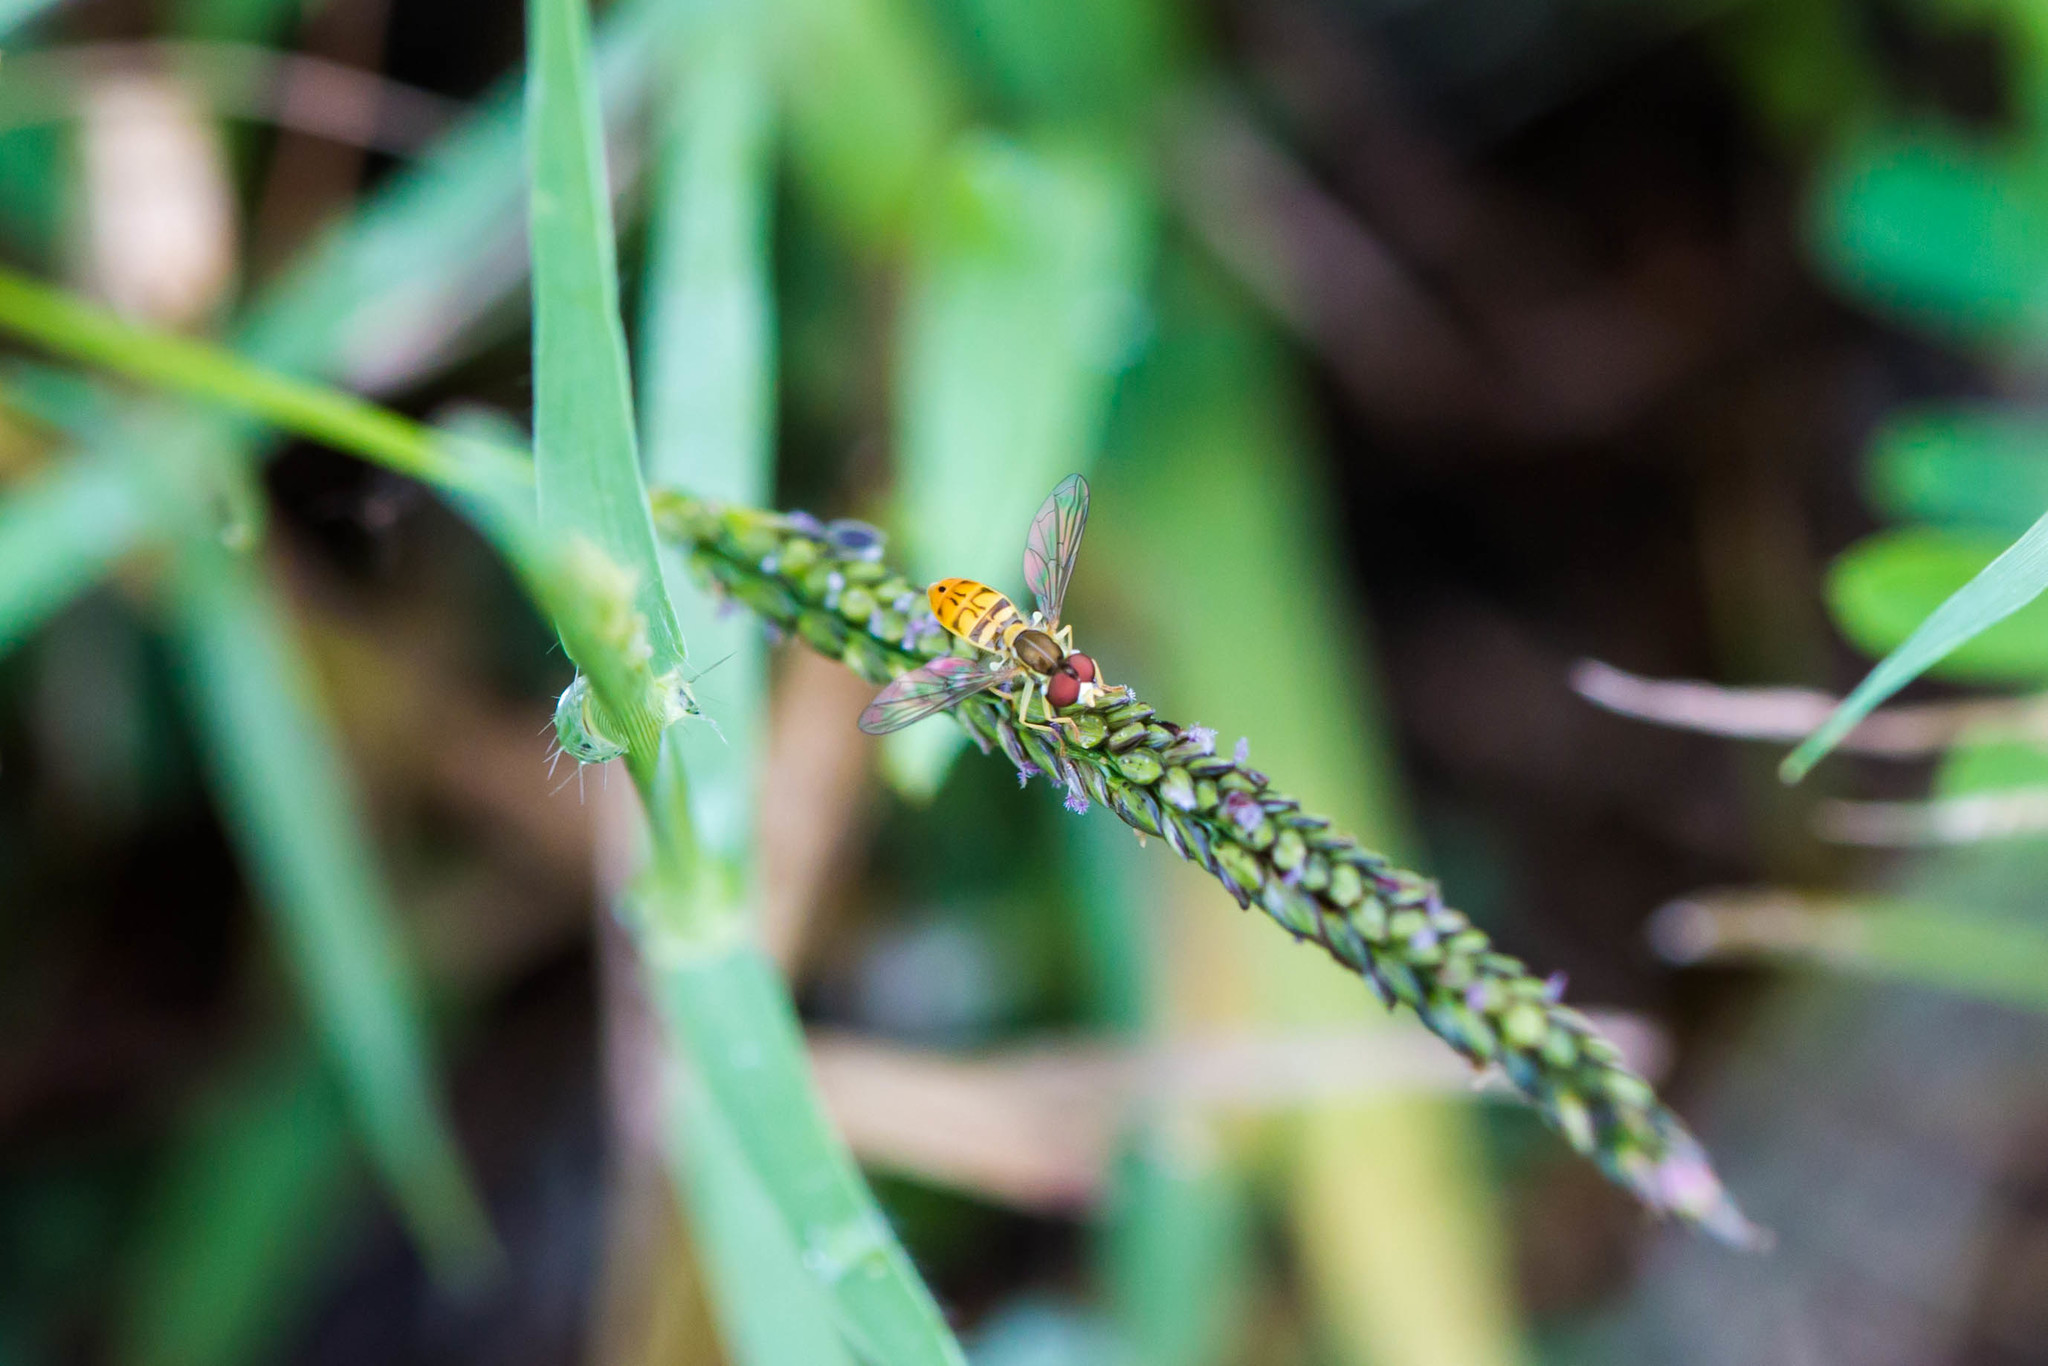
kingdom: Animalia
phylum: Arthropoda
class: Insecta
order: Diptera
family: Syrphidae
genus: Toxomerus
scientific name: Toxomerus marginatus
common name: Syrphid fly
